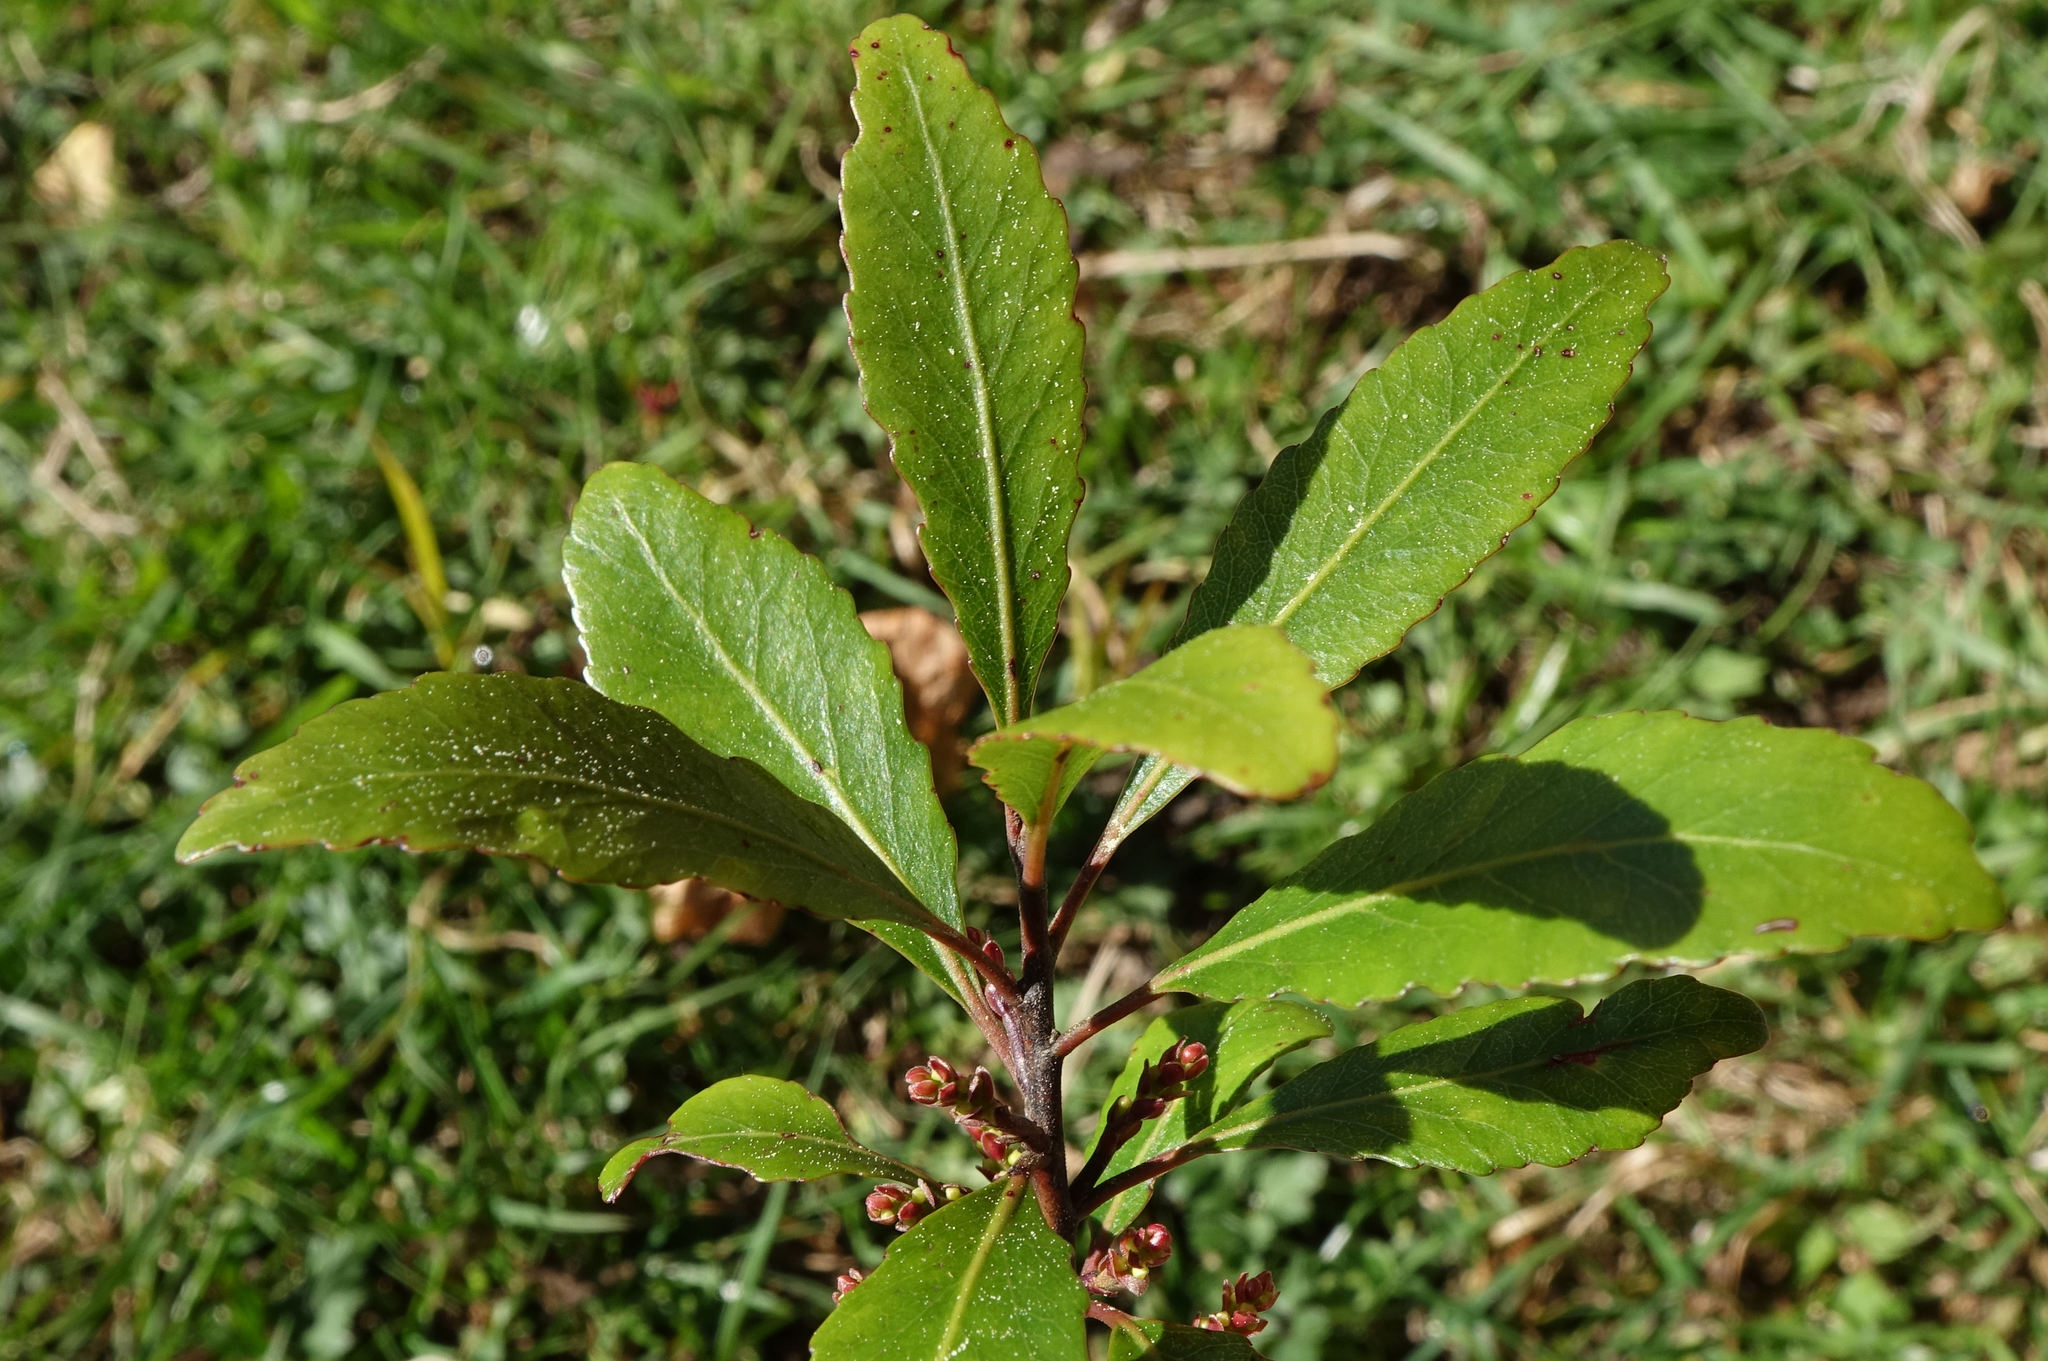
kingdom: Plantae
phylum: Tracheophyta
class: Magnoliopsida
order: Oxalidales
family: Elaeocarpaceae
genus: Elaeocarpus
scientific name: Elaeocarpus hookerianus
